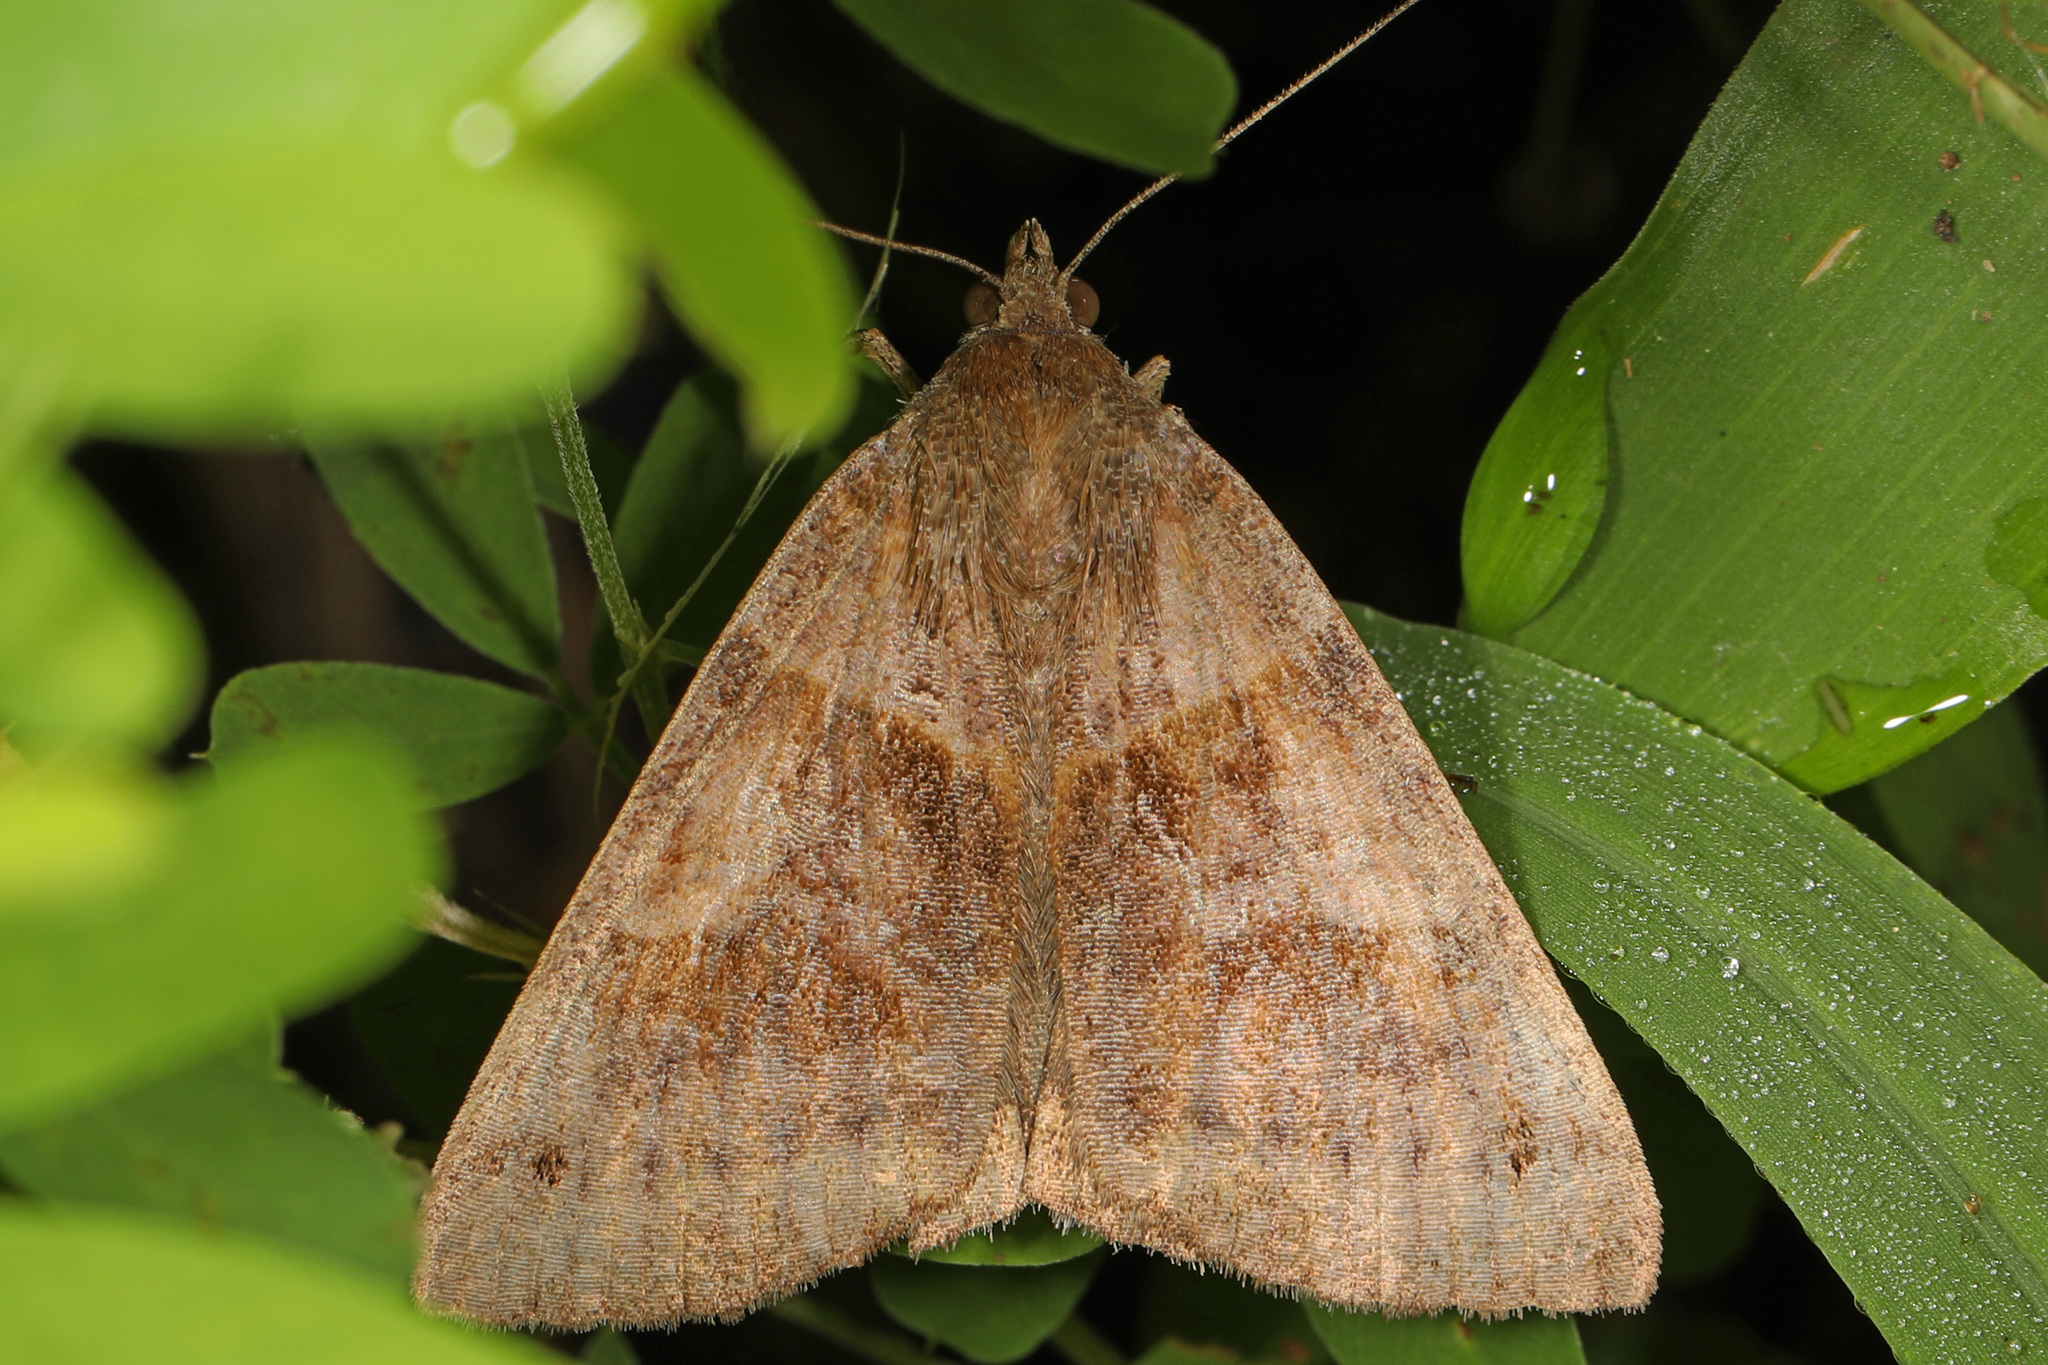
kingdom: Animalia
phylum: Arthropoda
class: Insecta
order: Lepidoptera
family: Erebidae
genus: Caenurgina
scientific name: Caenurgina crassiuscula
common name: Double-barred
